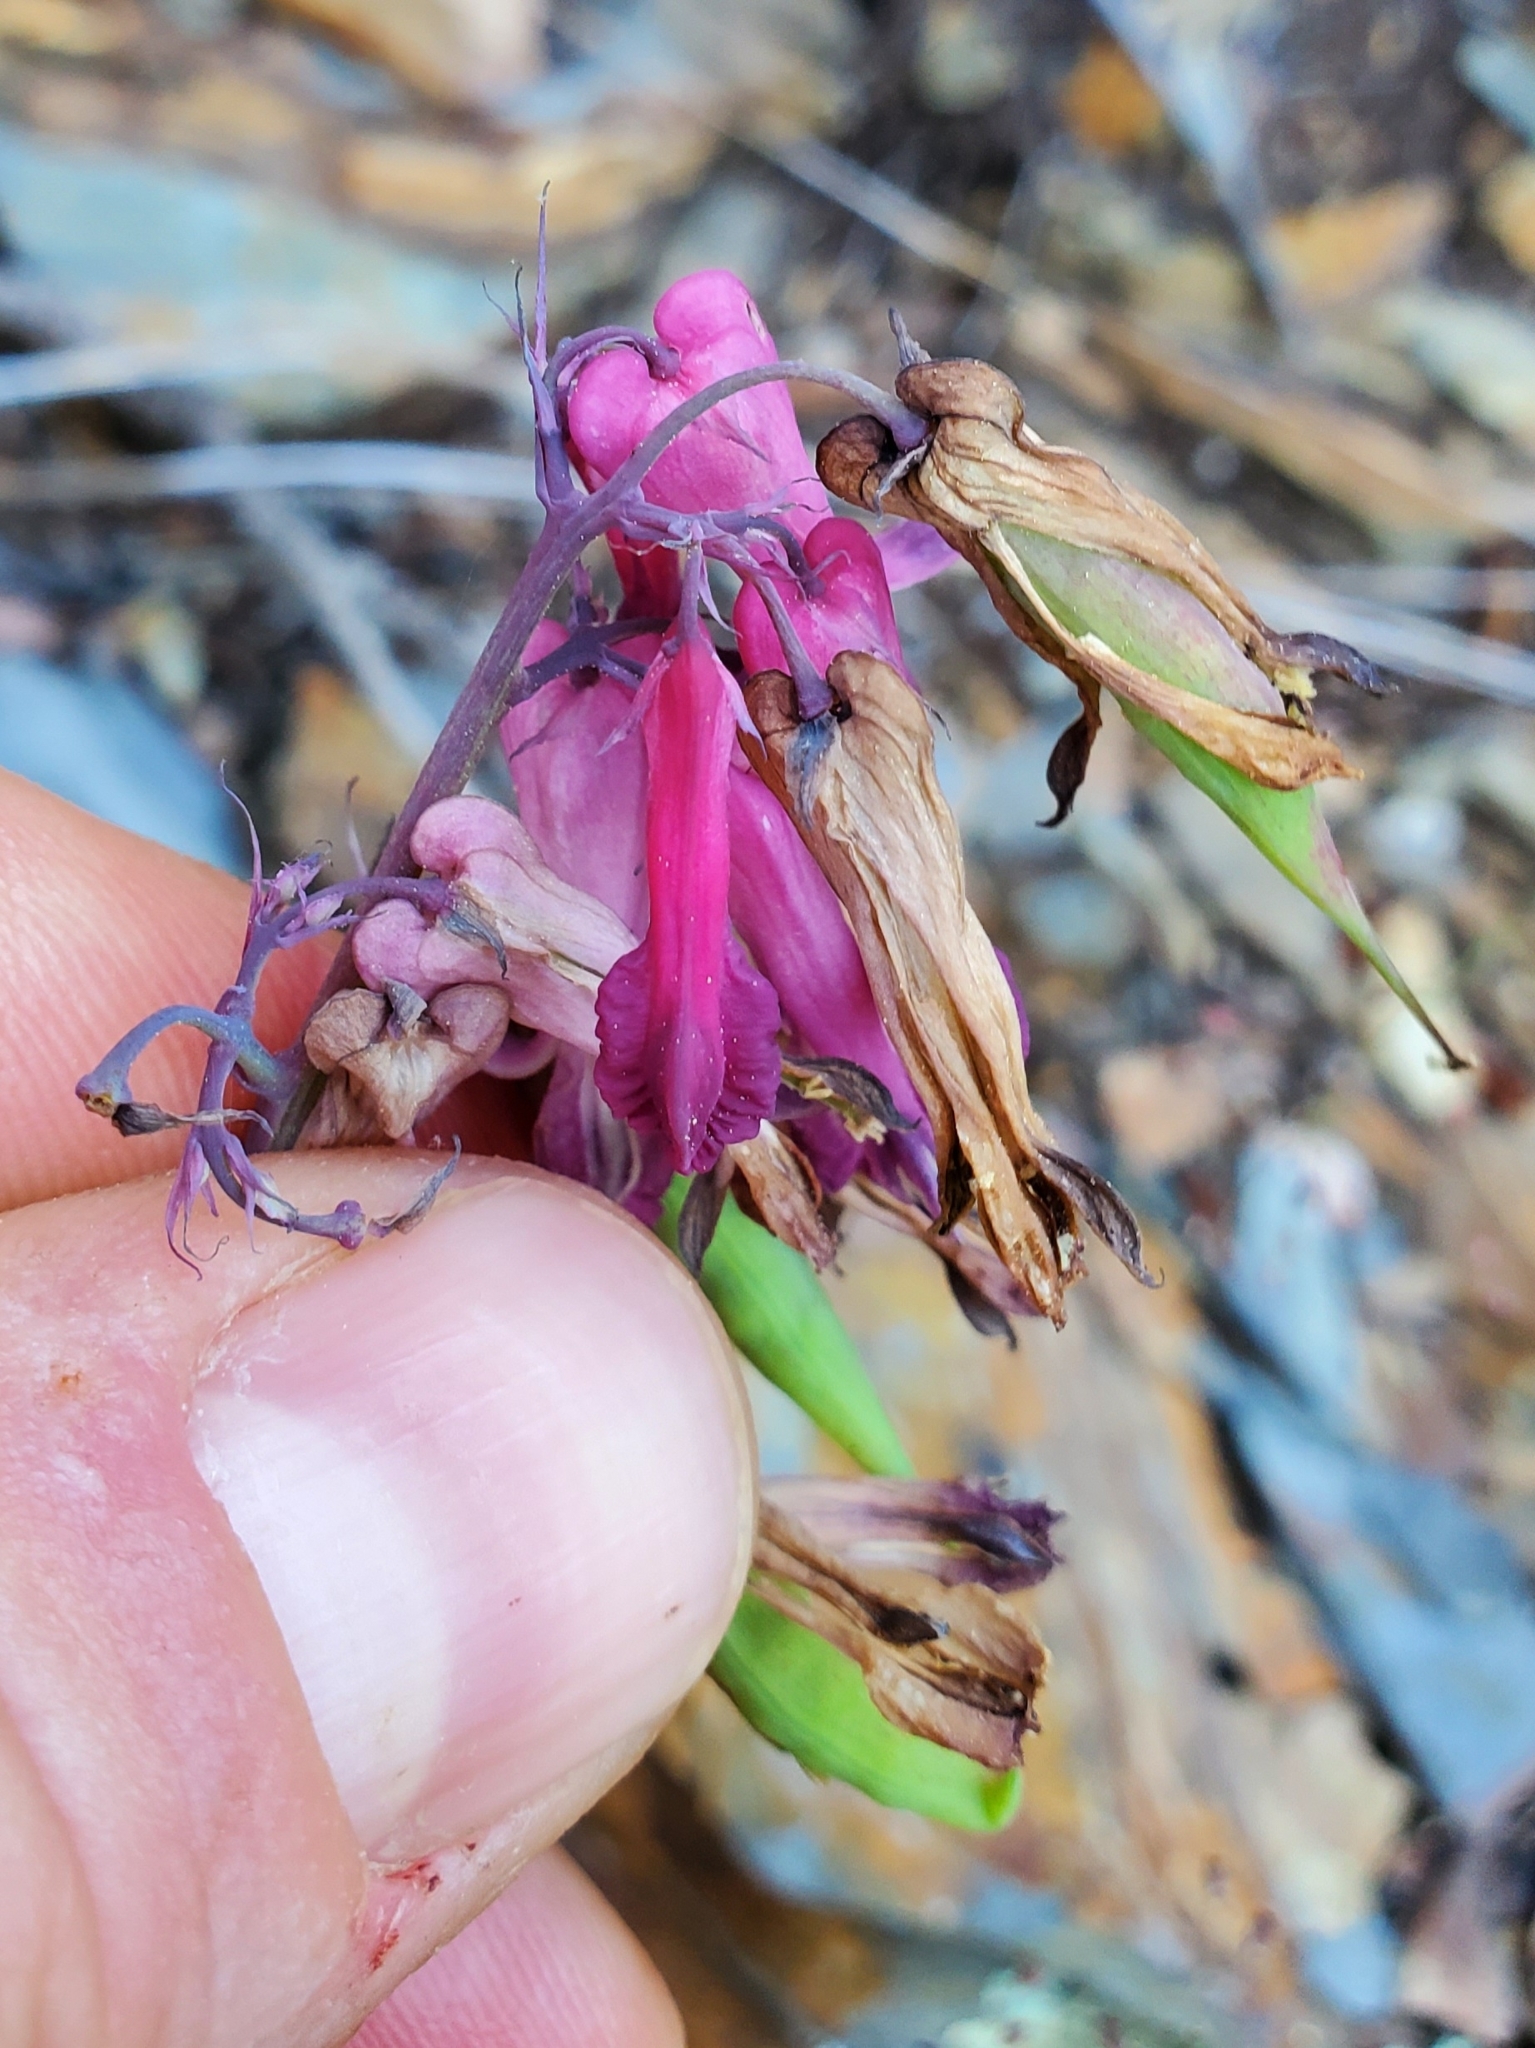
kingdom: Plantae
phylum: Tracheophyta
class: Magnoliopsida
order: Ranunculales
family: Papaveraceae
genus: Dicentra
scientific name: Dicentra eximia
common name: Turkey-corn
